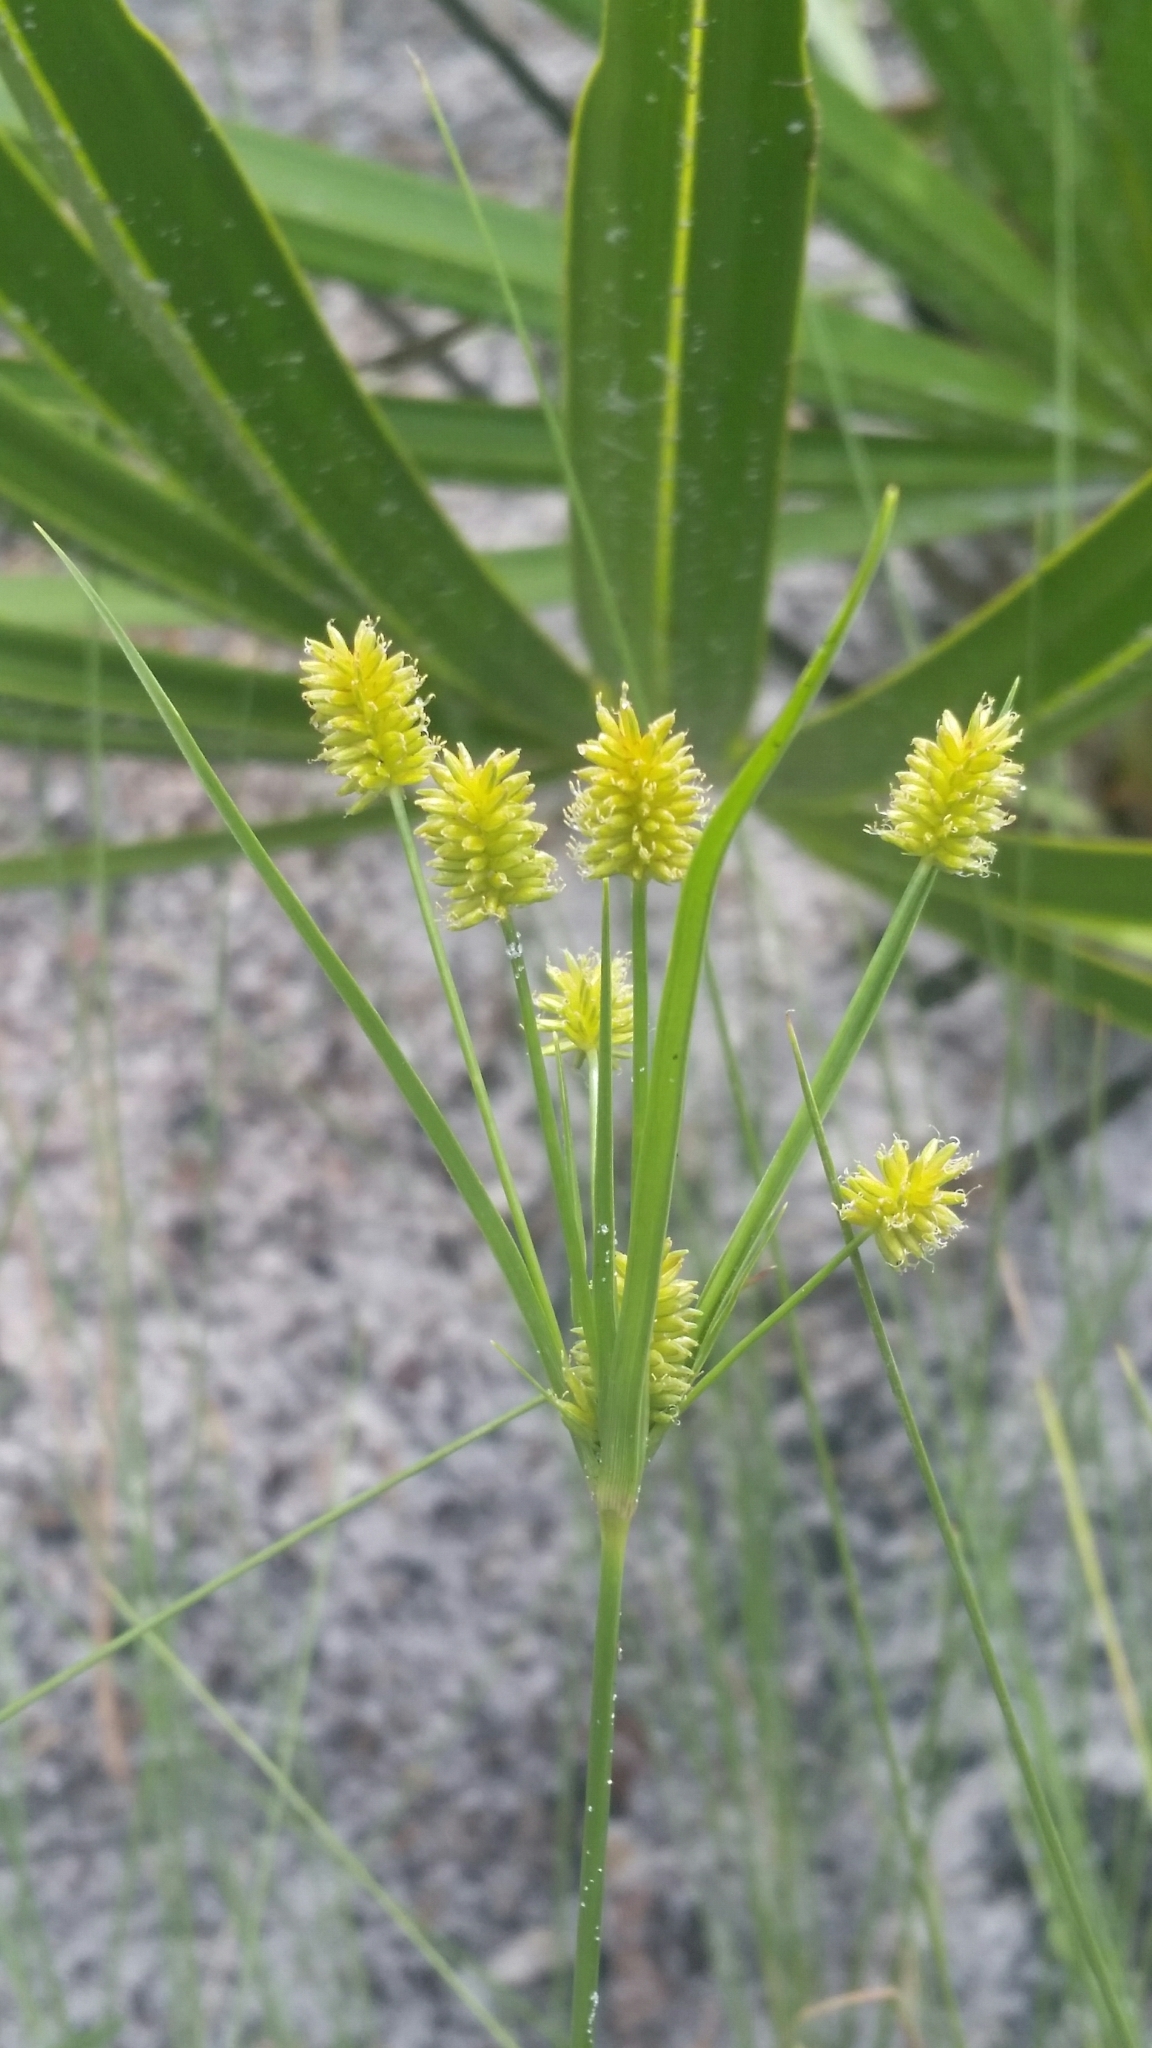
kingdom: Plantae
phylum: Tracheophyta
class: Liliopsida
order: Poales
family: Cyperaceae
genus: Cyperus
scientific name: Cyperus retrorsus
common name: Pinebarren flat sedge
